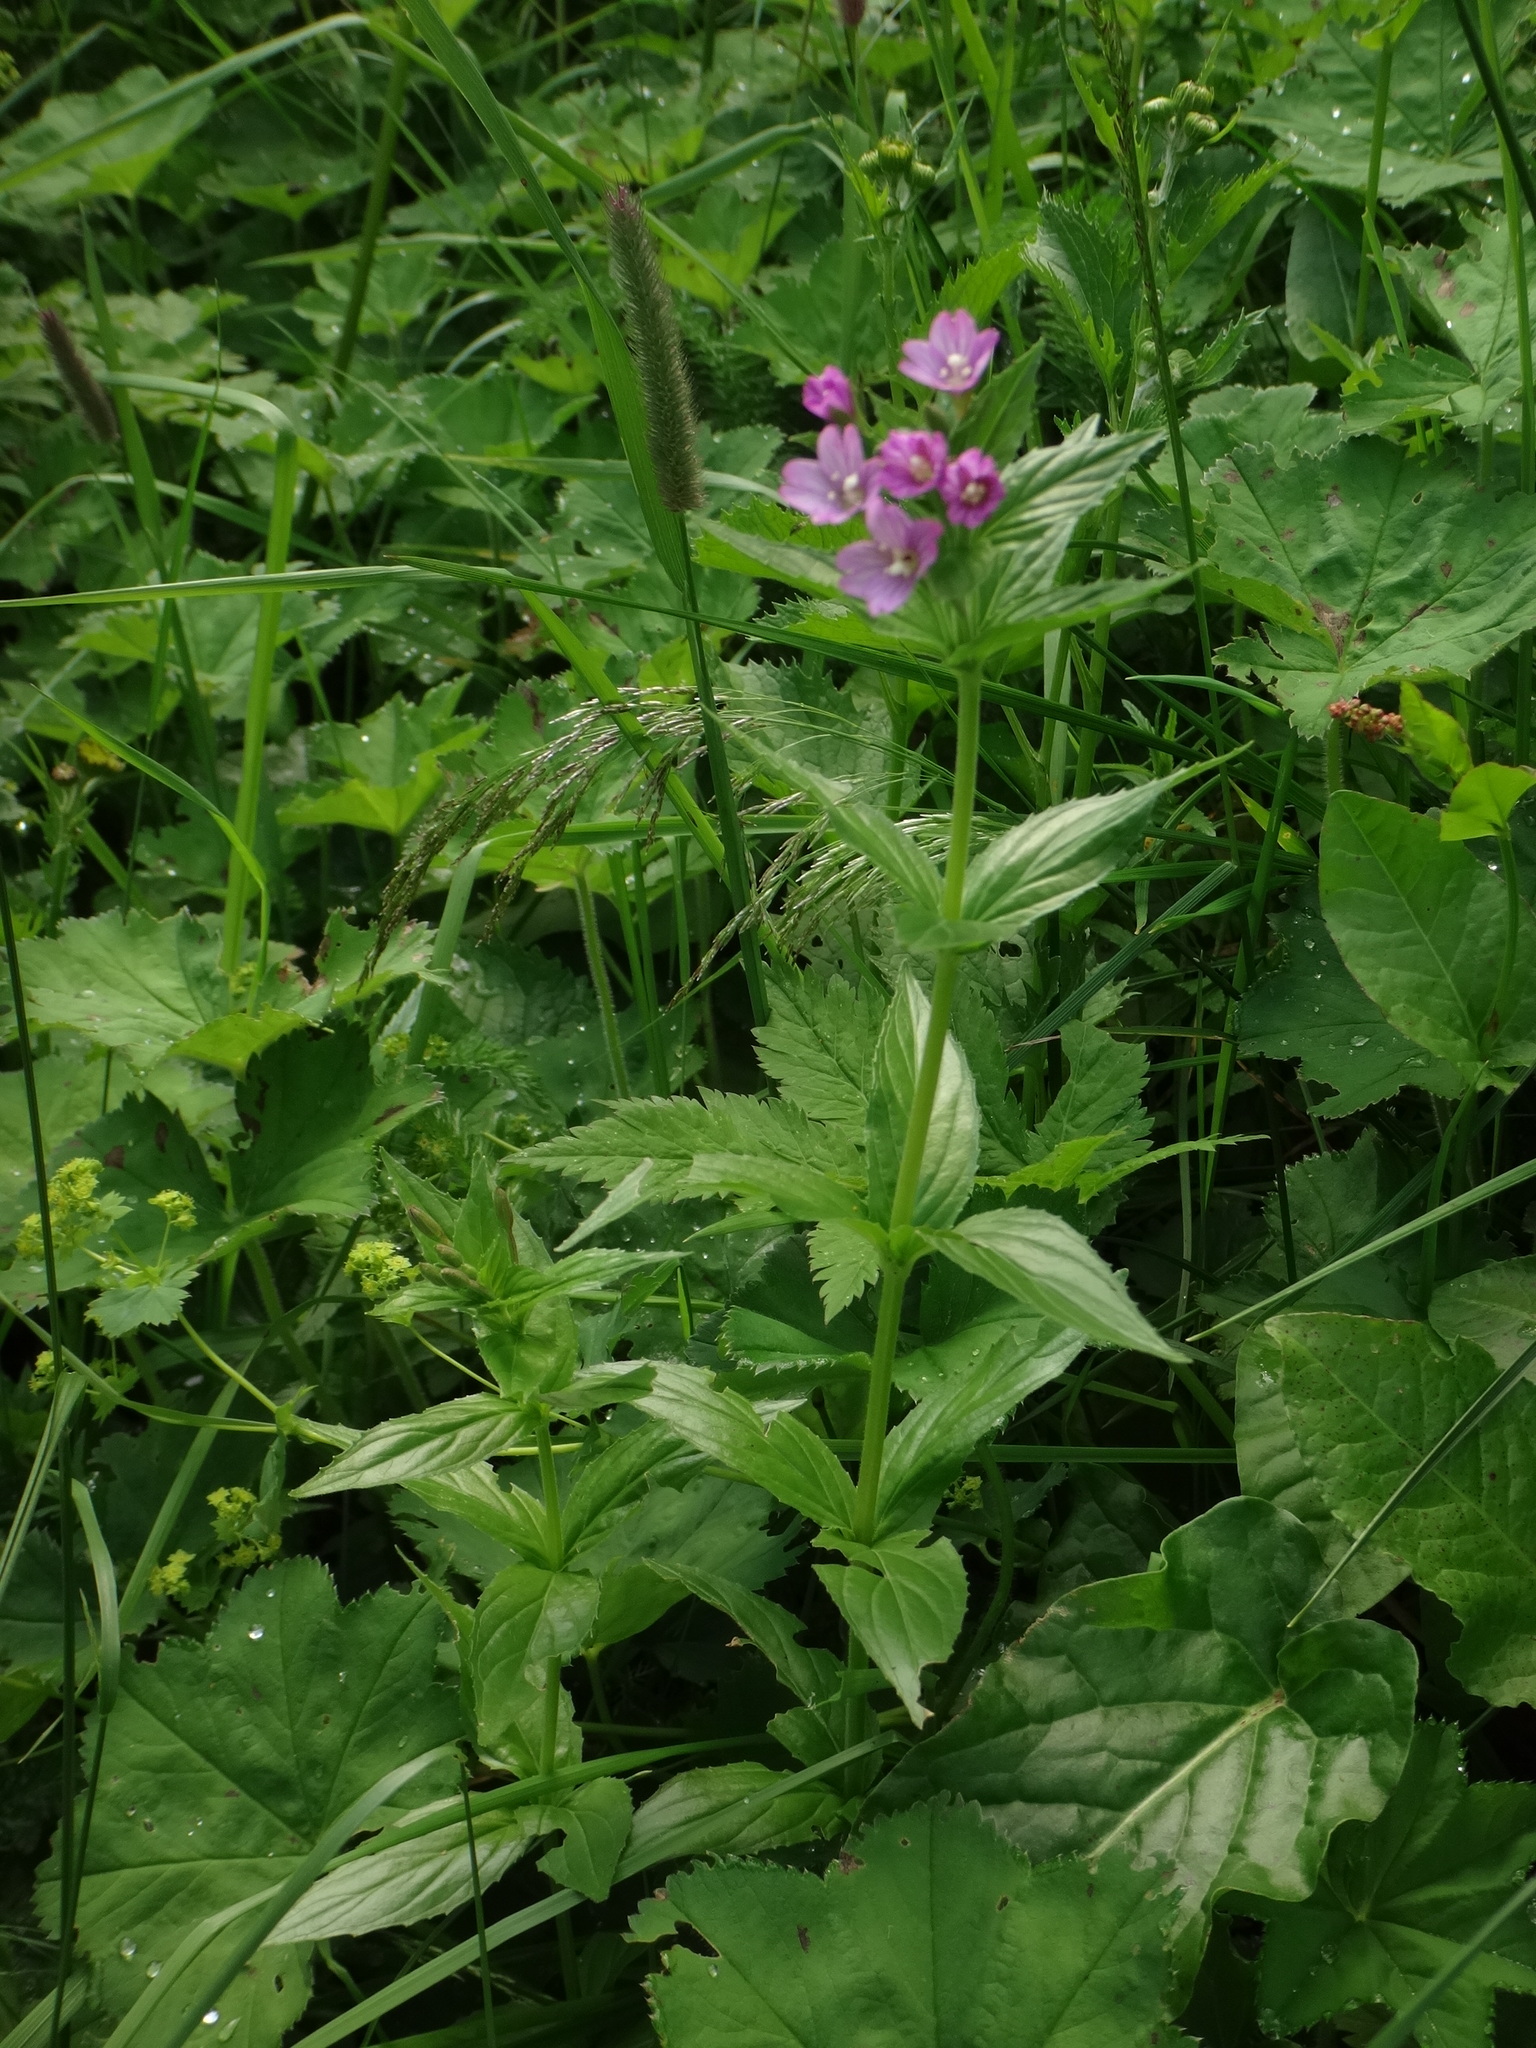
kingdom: Plantae
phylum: Tracheophyta
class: Magnoliopsida
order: Myrtales
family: Onagraceae
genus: Epilobium
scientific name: Epilobium alpestre
